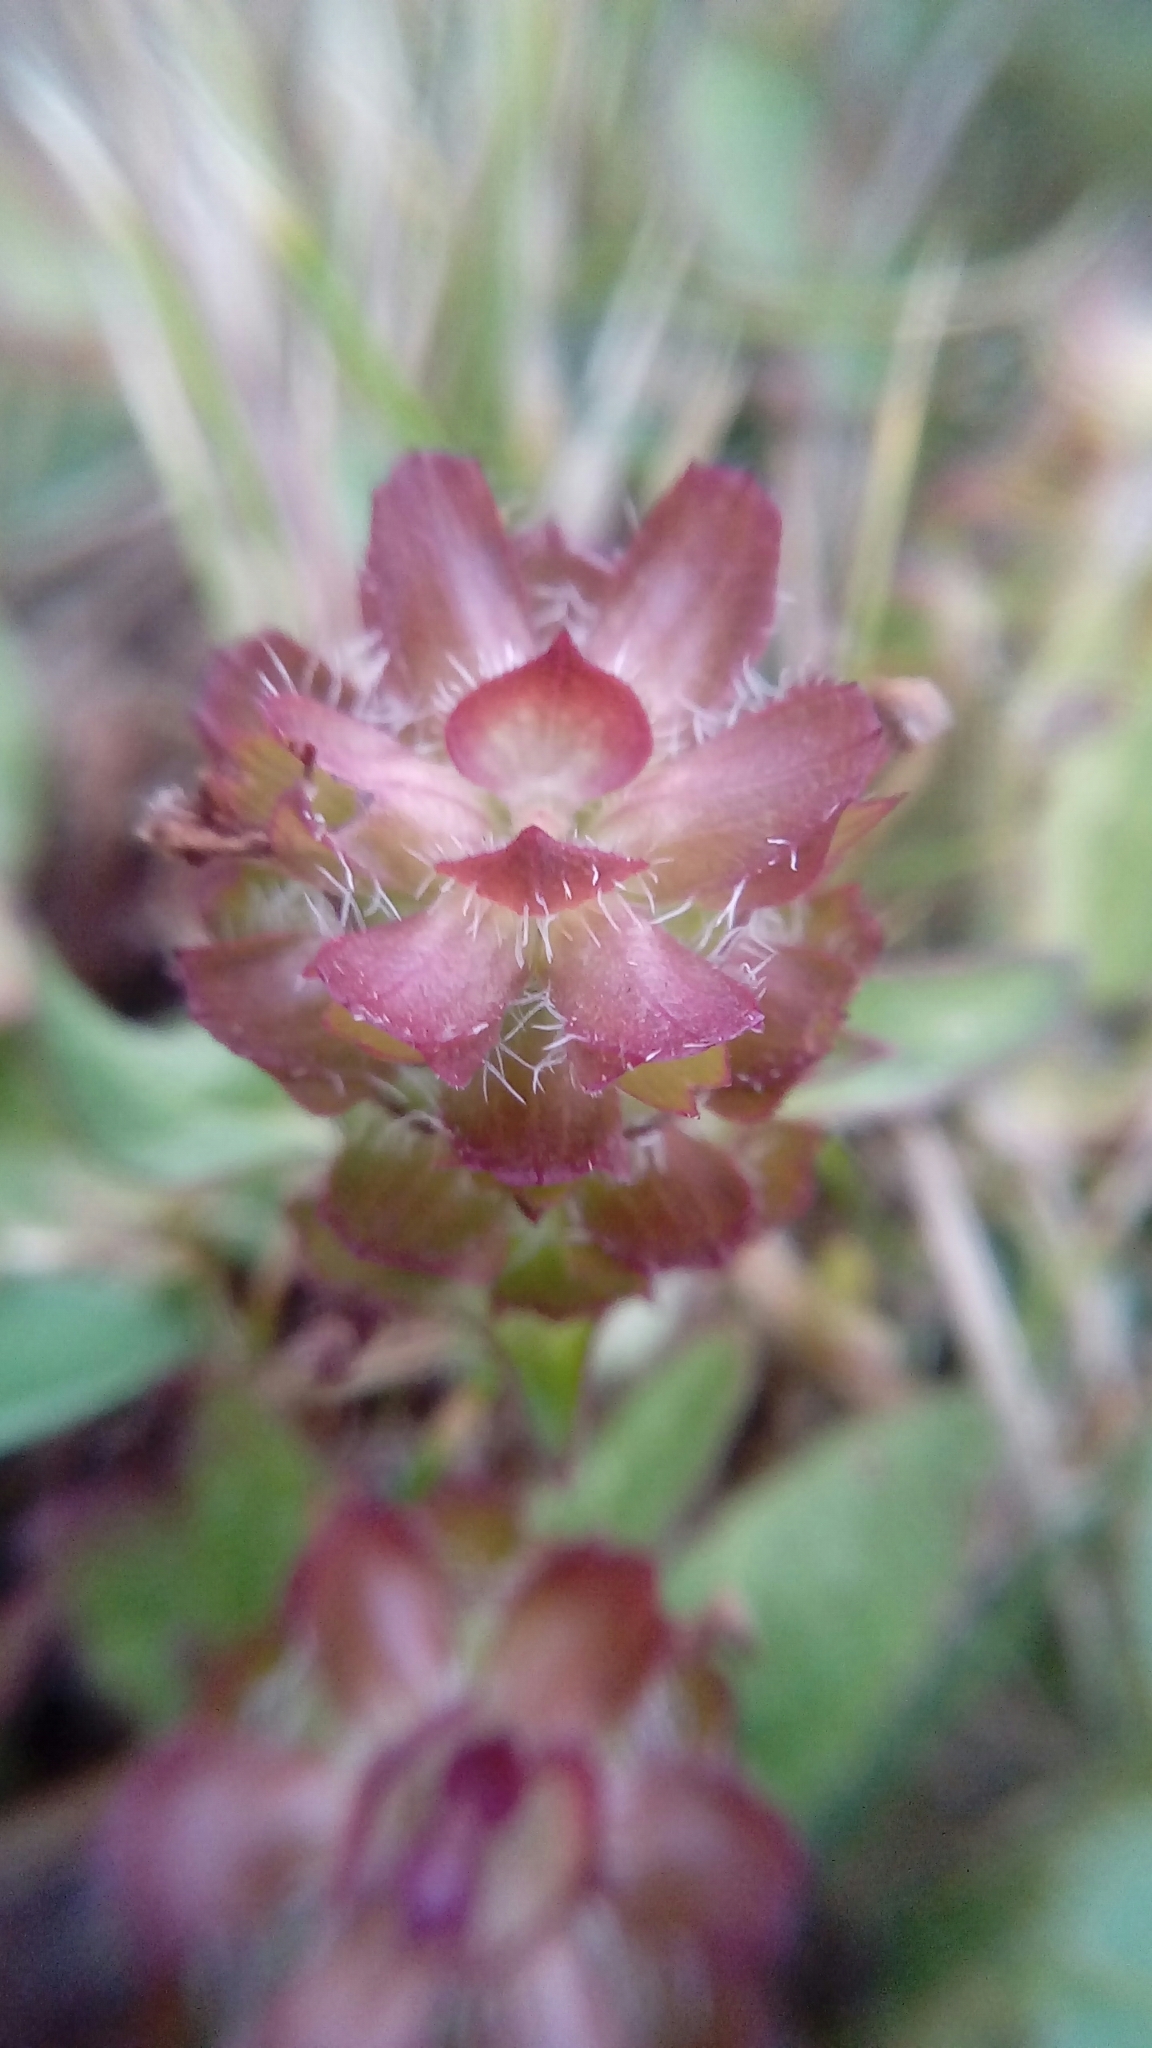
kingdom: Plantae
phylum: Tracheophyta
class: Magnoliopsida
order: Lamiales
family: Lamiaceae
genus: Prunella
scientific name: Prunella vulgaris
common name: Heal-all
